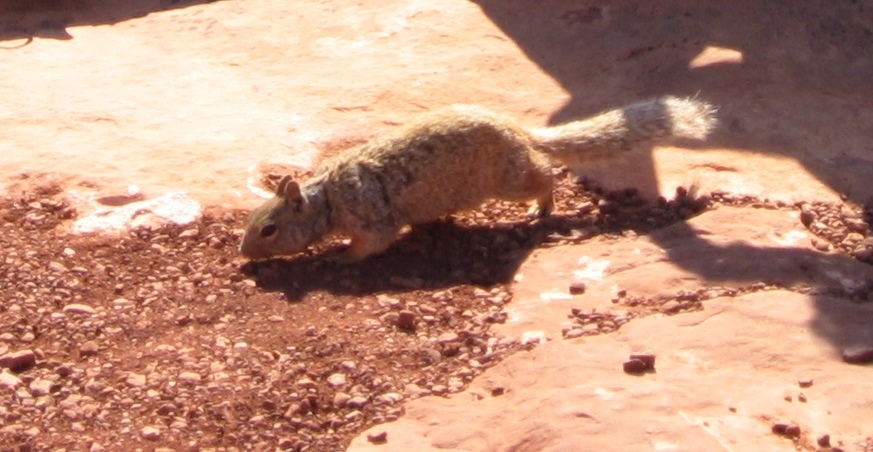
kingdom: Animalia
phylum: Chordata
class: Mammalia
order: Rodentia
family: Sciuridae
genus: Otospermophilus
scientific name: Otospermophilus variegatus
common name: Rock squirrel
